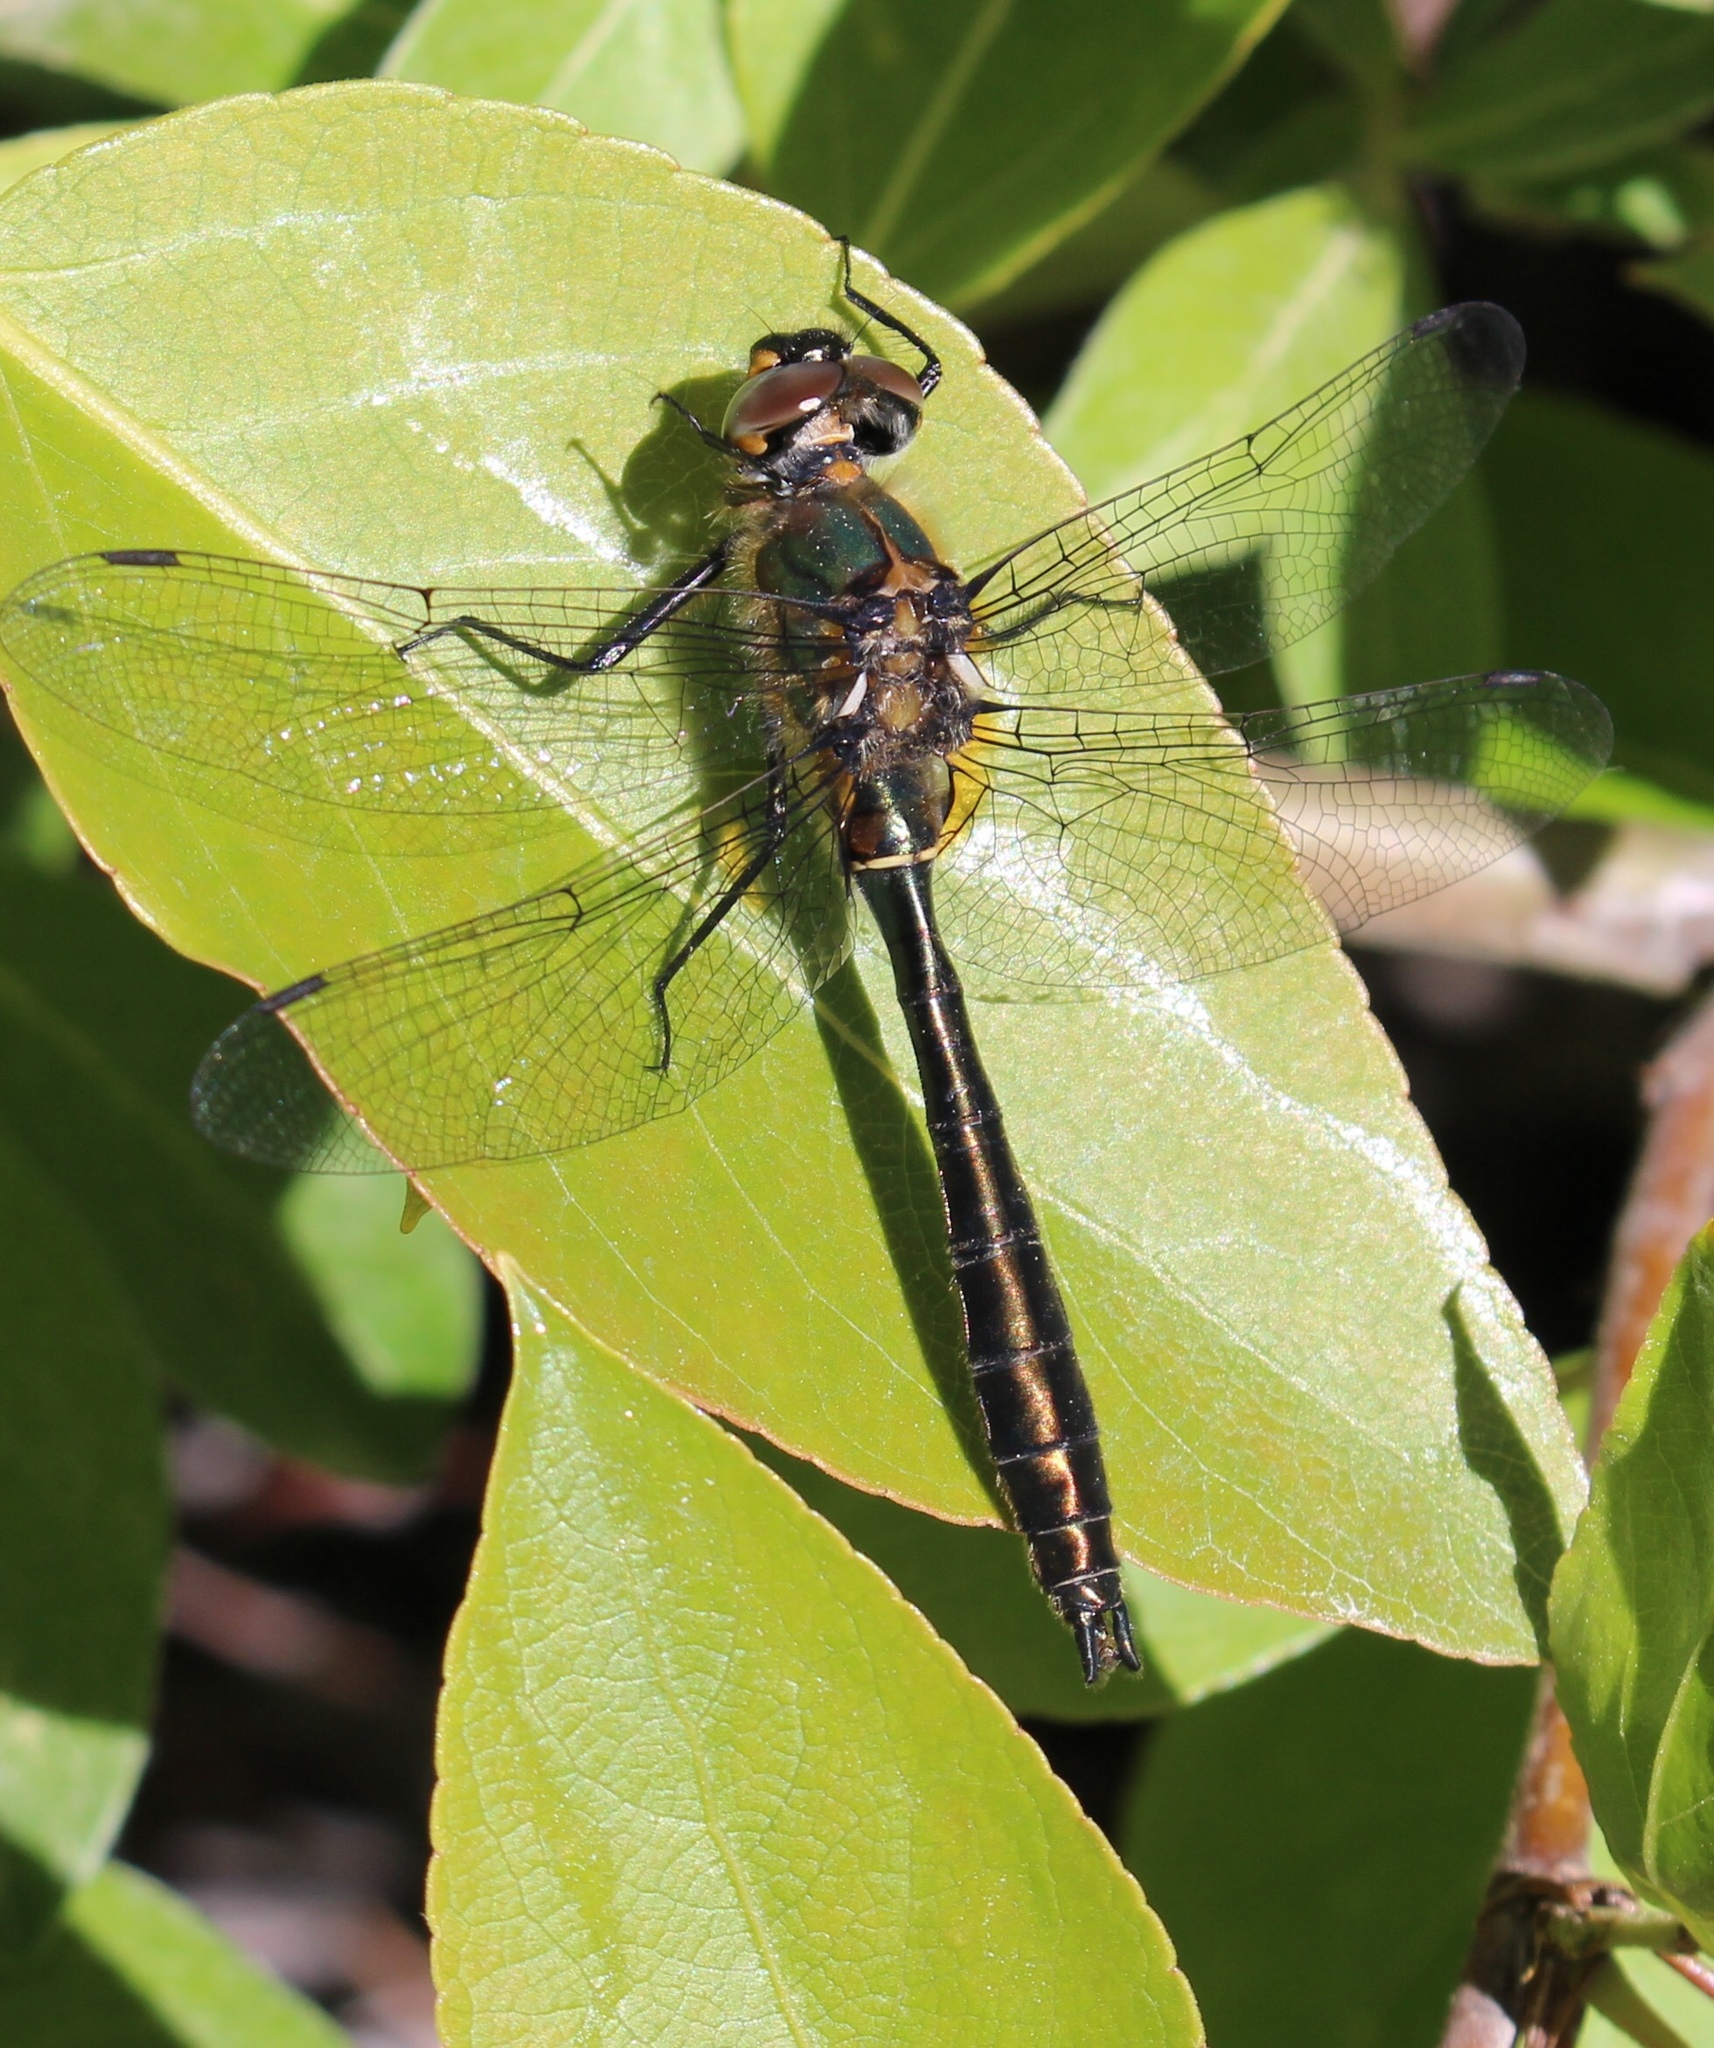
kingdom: Animalia
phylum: Arthropoda
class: Insecta
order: Odonata
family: Corduliidae
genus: Cordulia
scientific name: Cordulia shurtleffii
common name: American emerald
